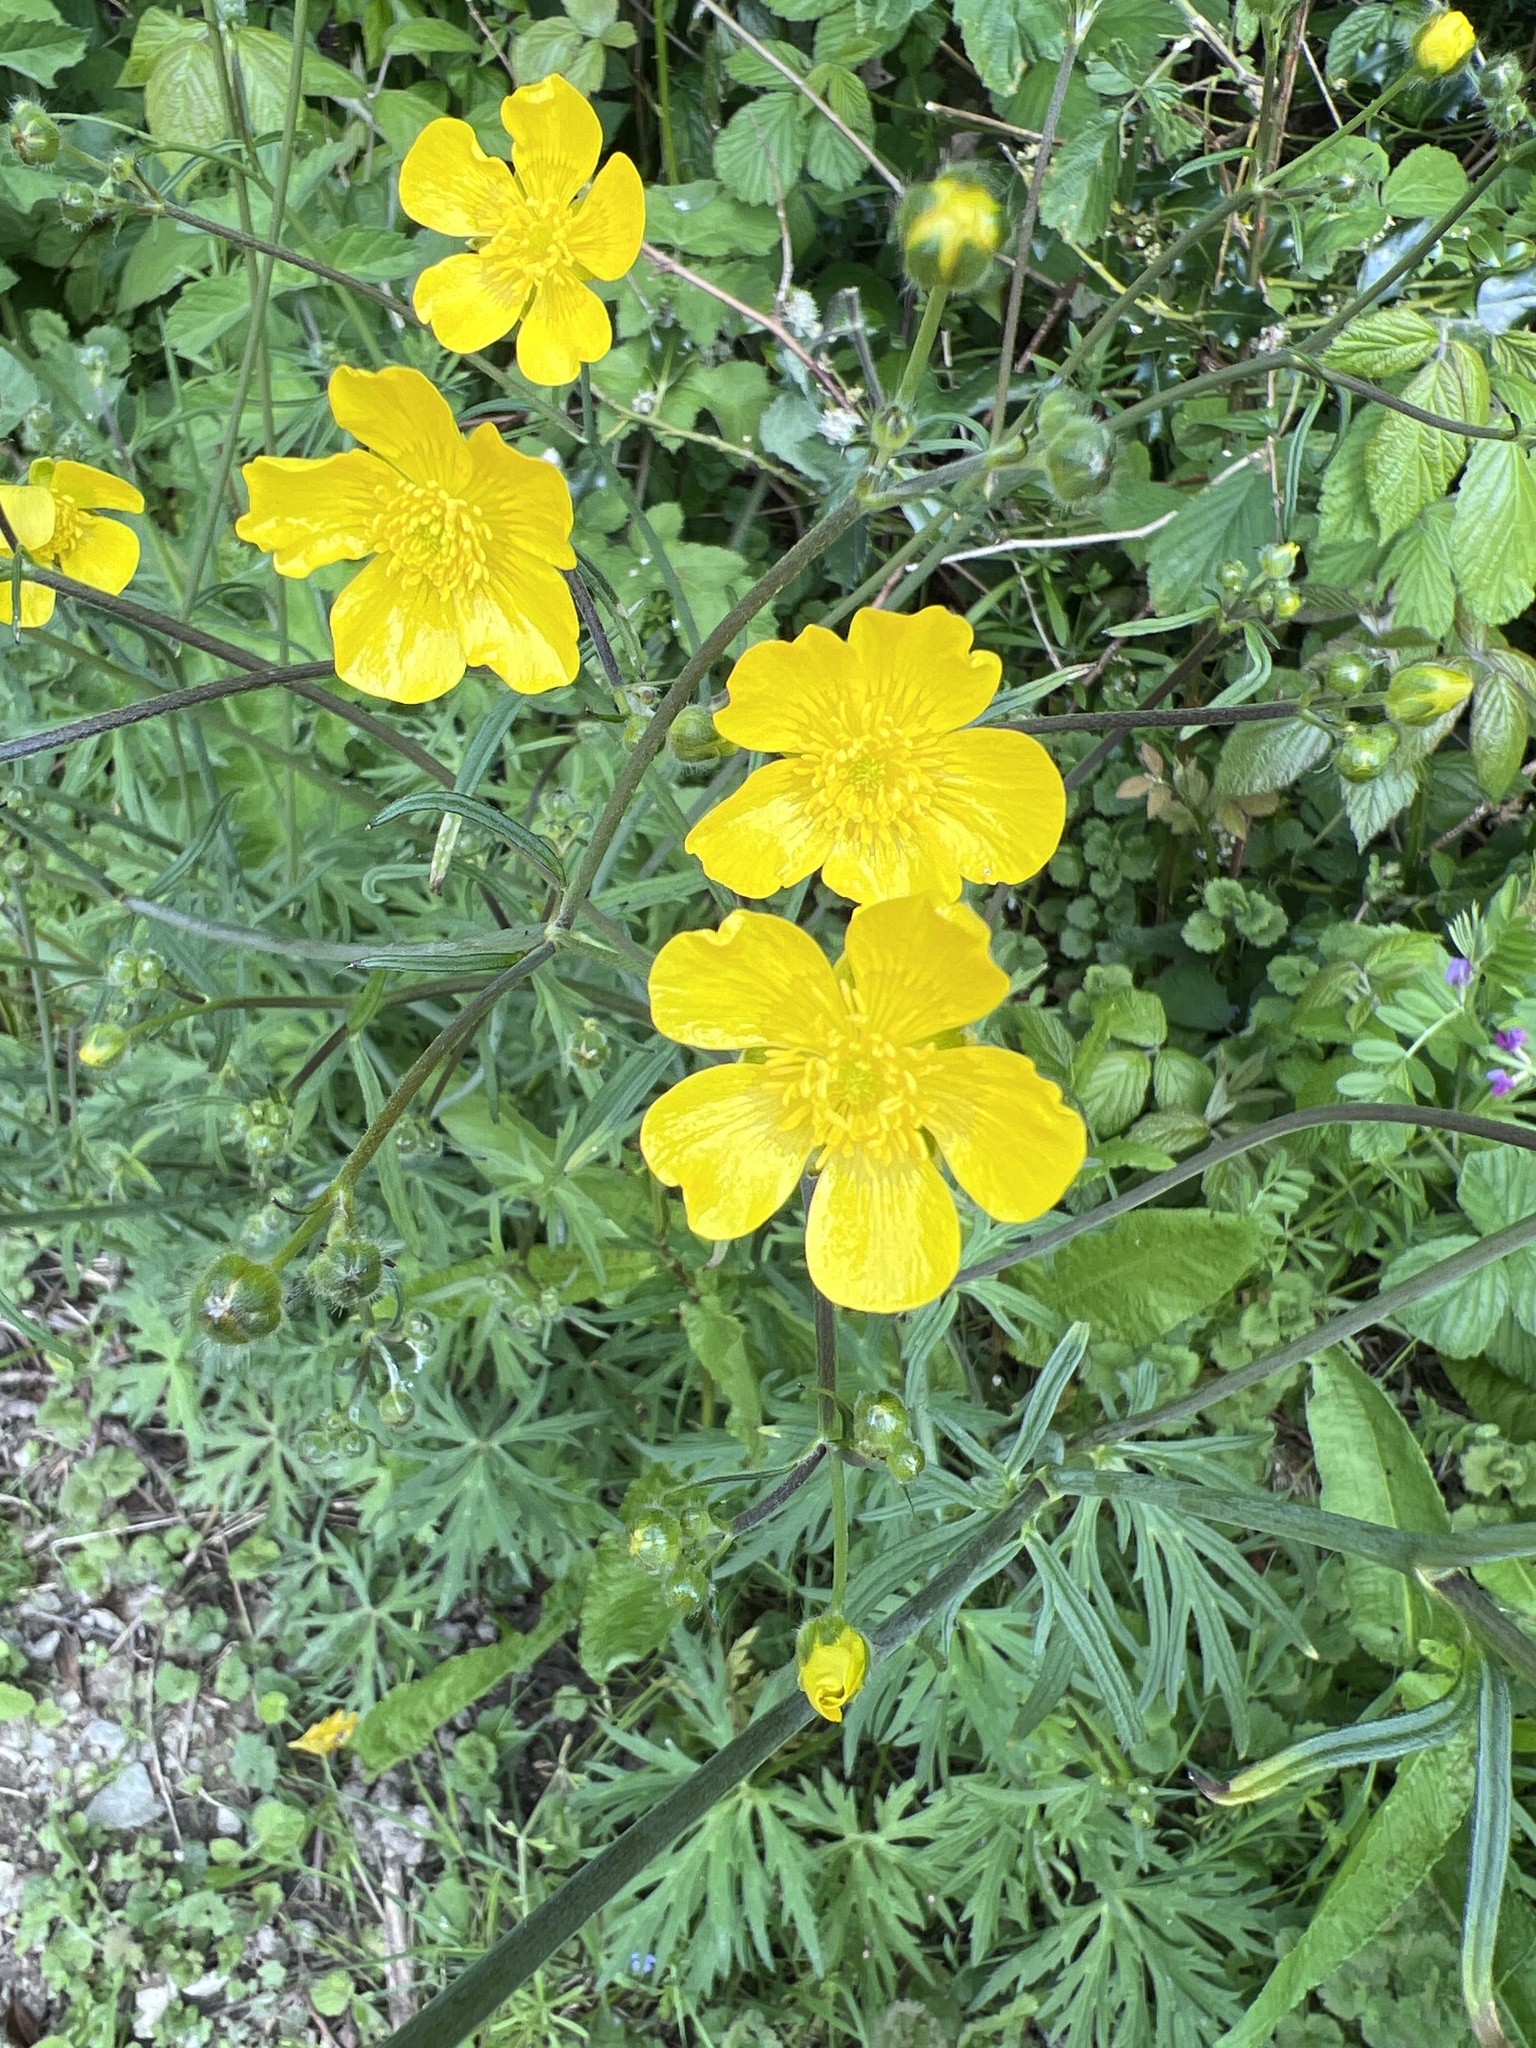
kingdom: Plantae
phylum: Tracheophyta
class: Magnoliopsida
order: Ranunculales
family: Ranunculaceae
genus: Ranunculus
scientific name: Ranunculus acris
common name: Meadow buttercup
